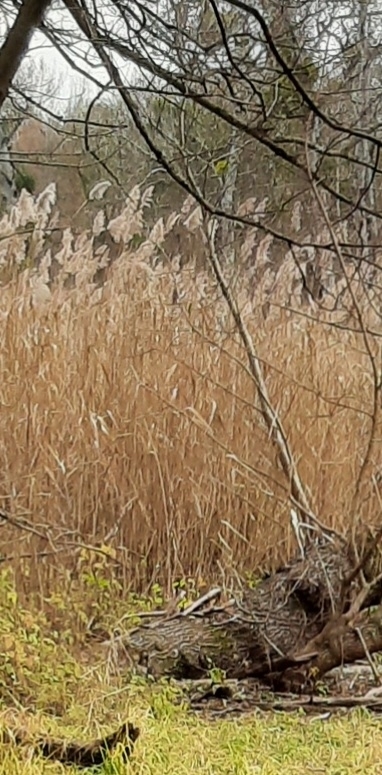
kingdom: Plantae
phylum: Tracheophyta
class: Liliopsida
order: Poales
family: Poaceae
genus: Phragmites
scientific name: Phragmites australis
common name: Common reed
